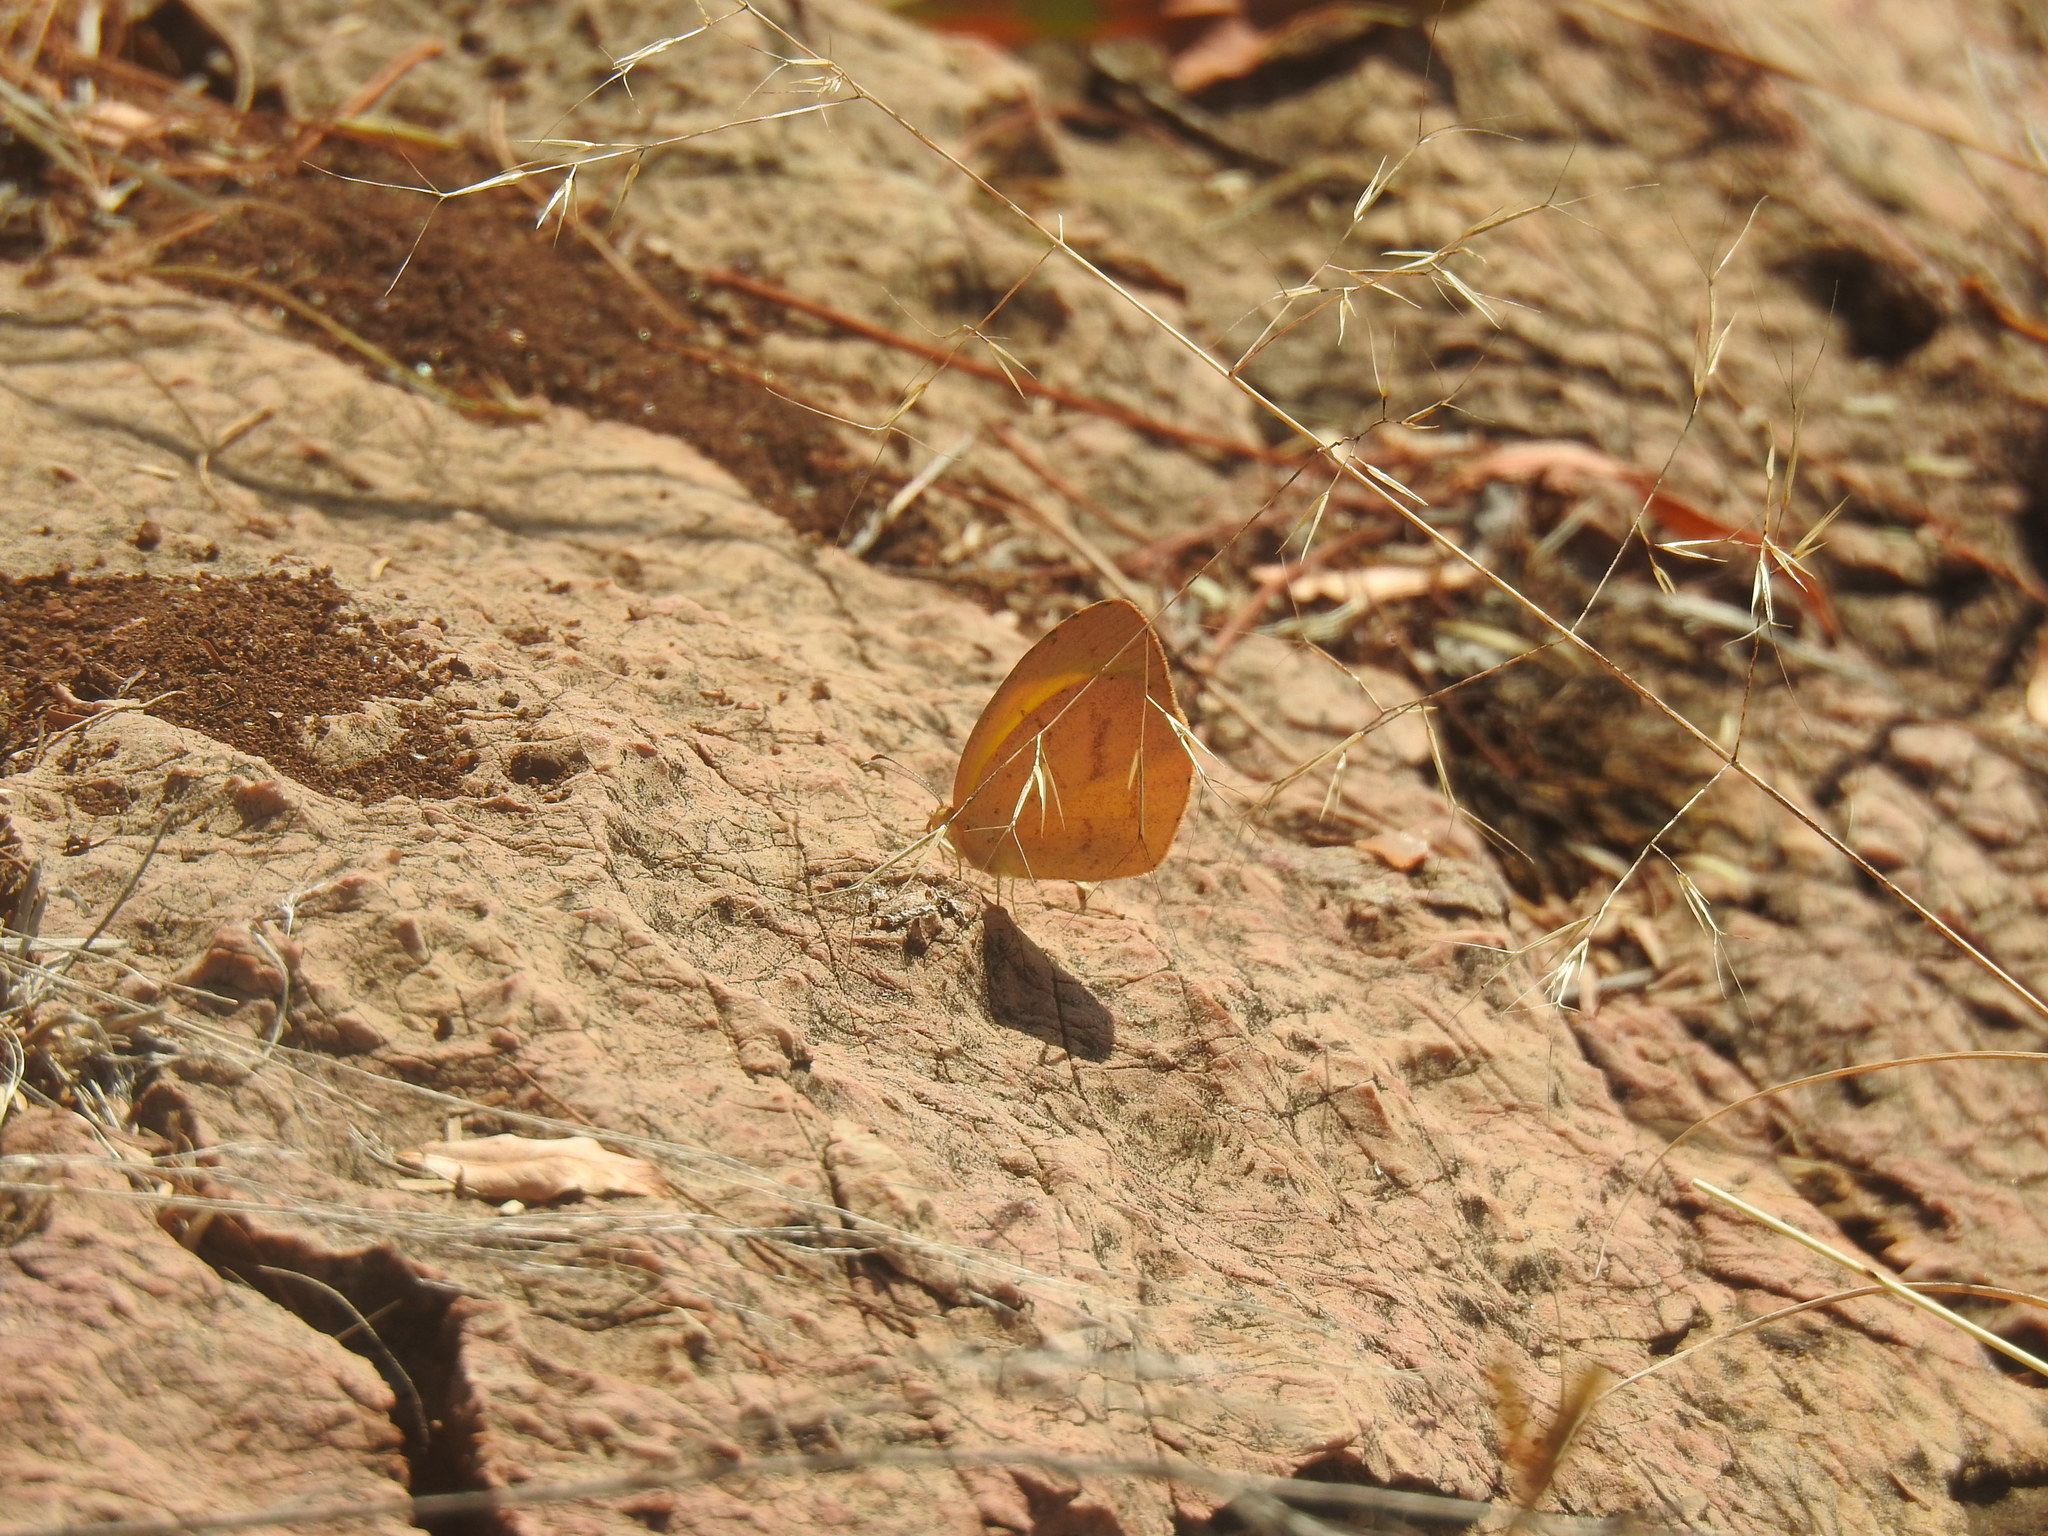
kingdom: Animalia
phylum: Arthropoda
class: Insecta
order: Lepidoptera
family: Pieridae
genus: Eurema
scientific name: Eurema brigitta
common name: Small grass yellow
